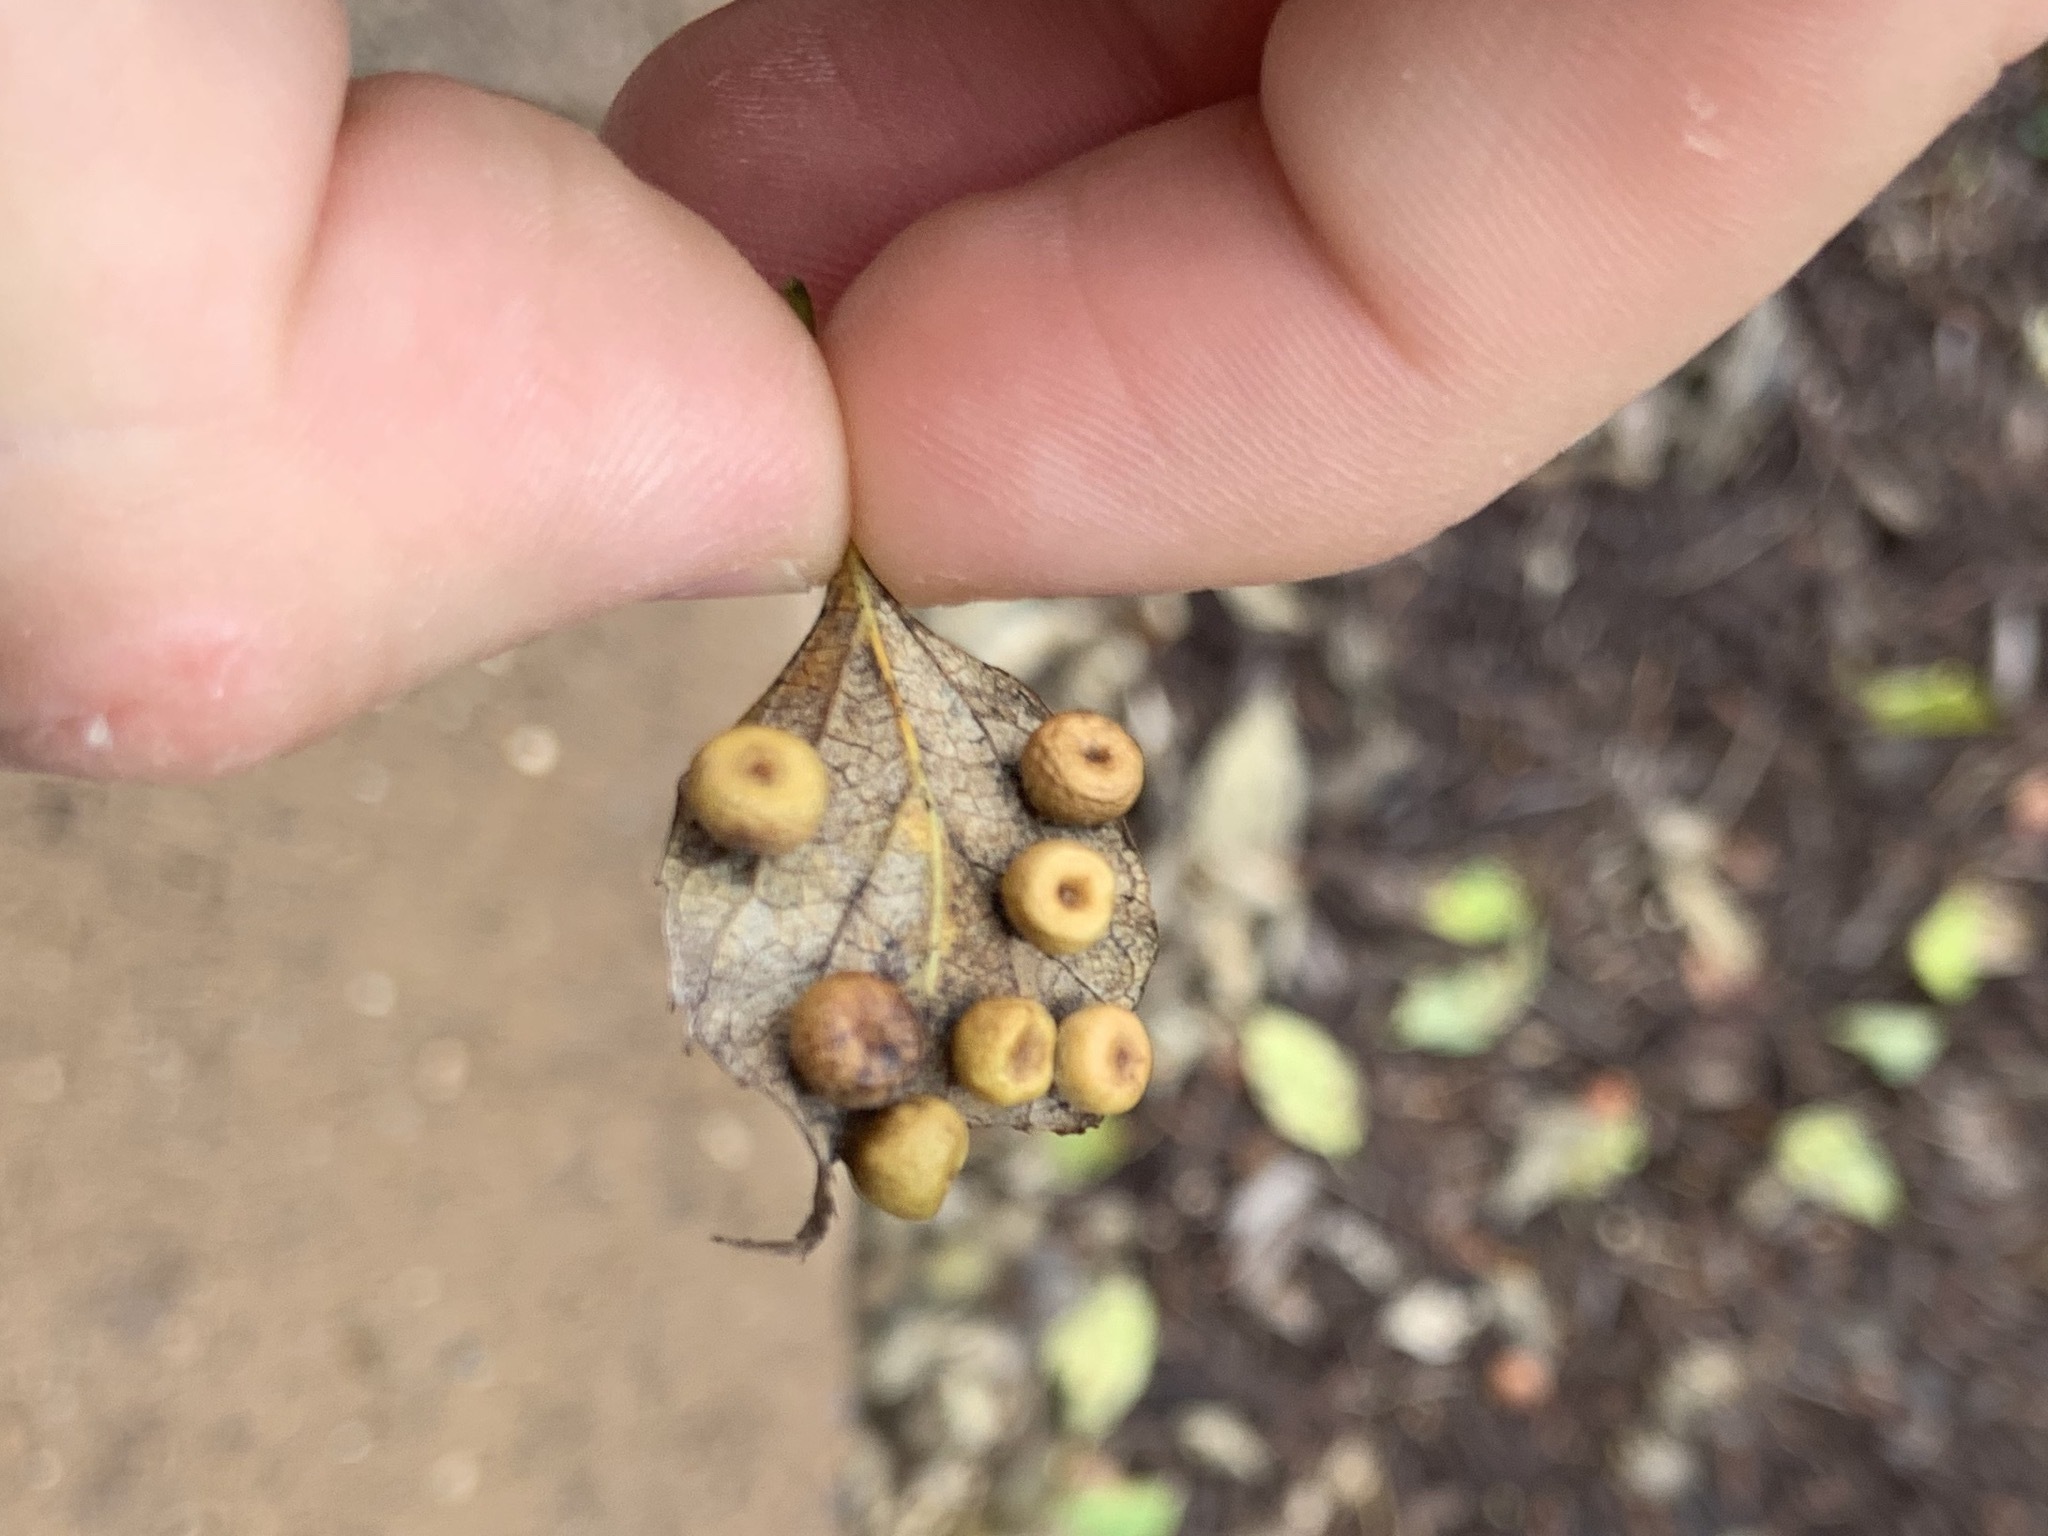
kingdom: Animalia
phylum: Arthropoda
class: Insecta
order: Hemiptera
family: Aphalaridae
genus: Pachypsylla
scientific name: Pachypsylla celtidismamma
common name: Hackberry nipplegall psyllid
